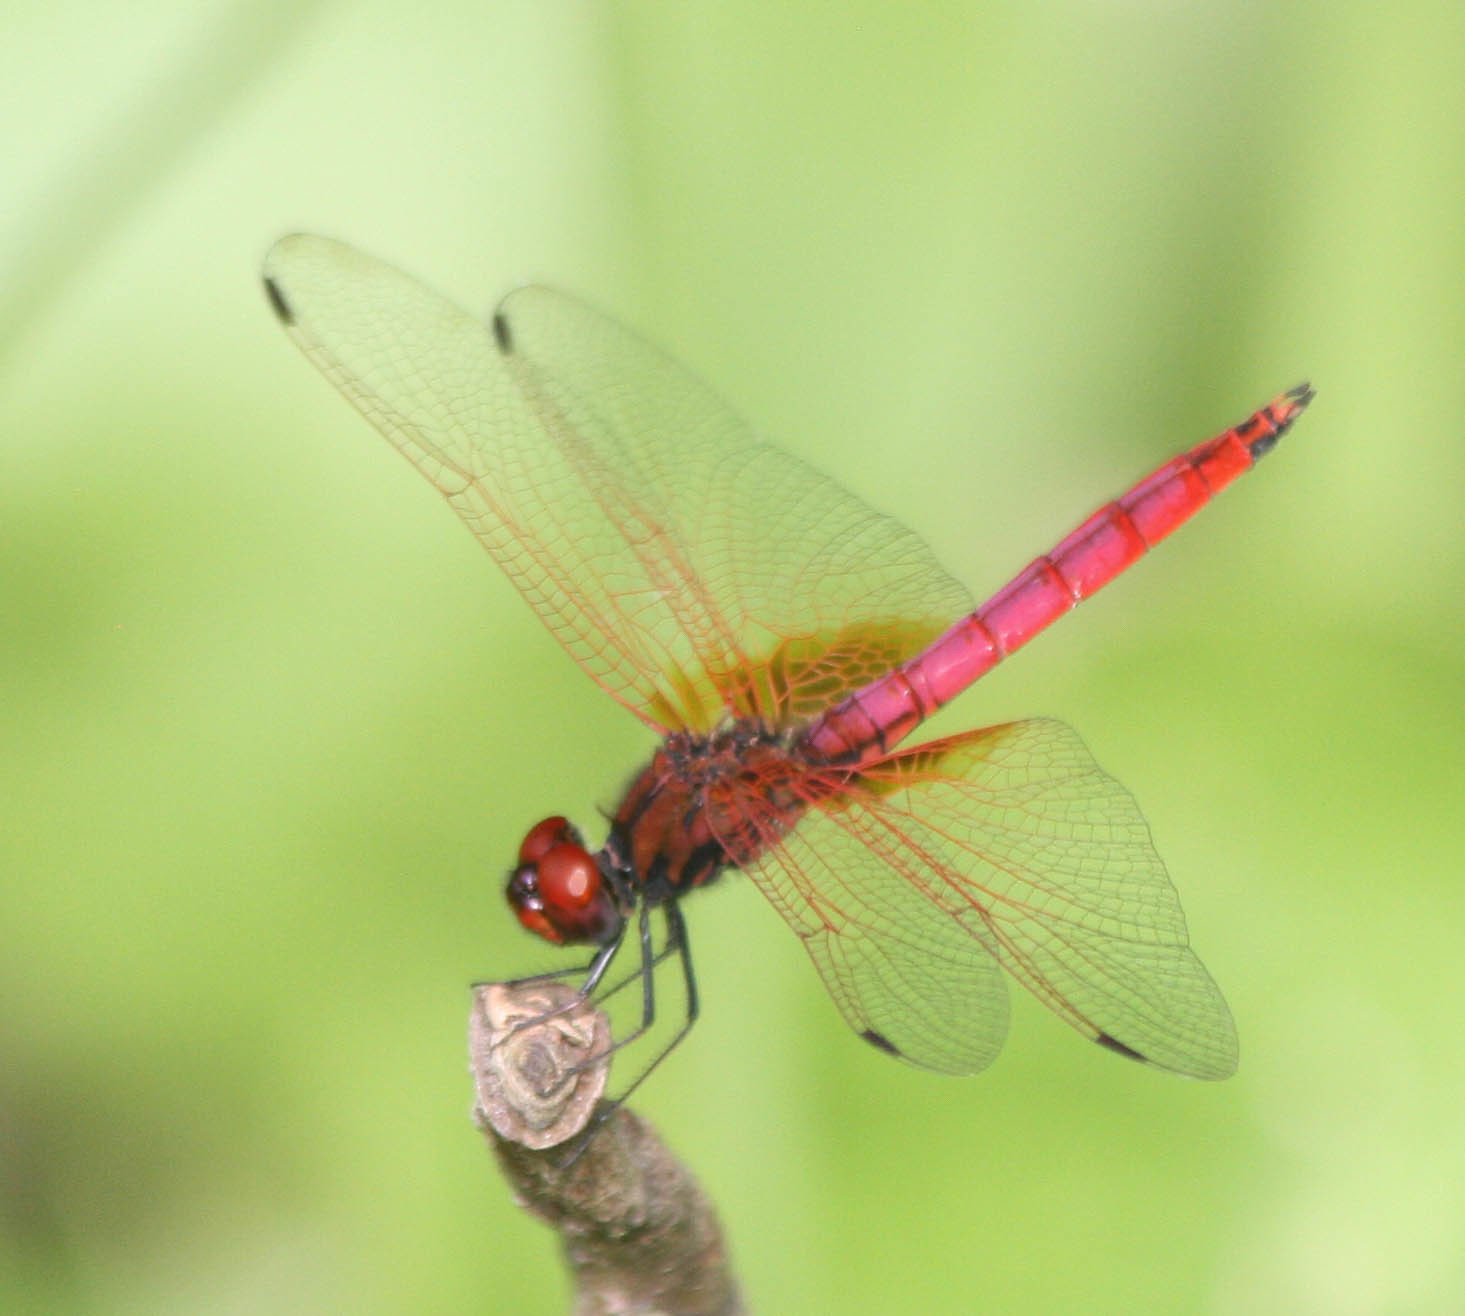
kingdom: Animalia
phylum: Arthropoda
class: Insecta
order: Odonata
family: Libellulidae
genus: Trithemis
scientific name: Trithemis aurora
